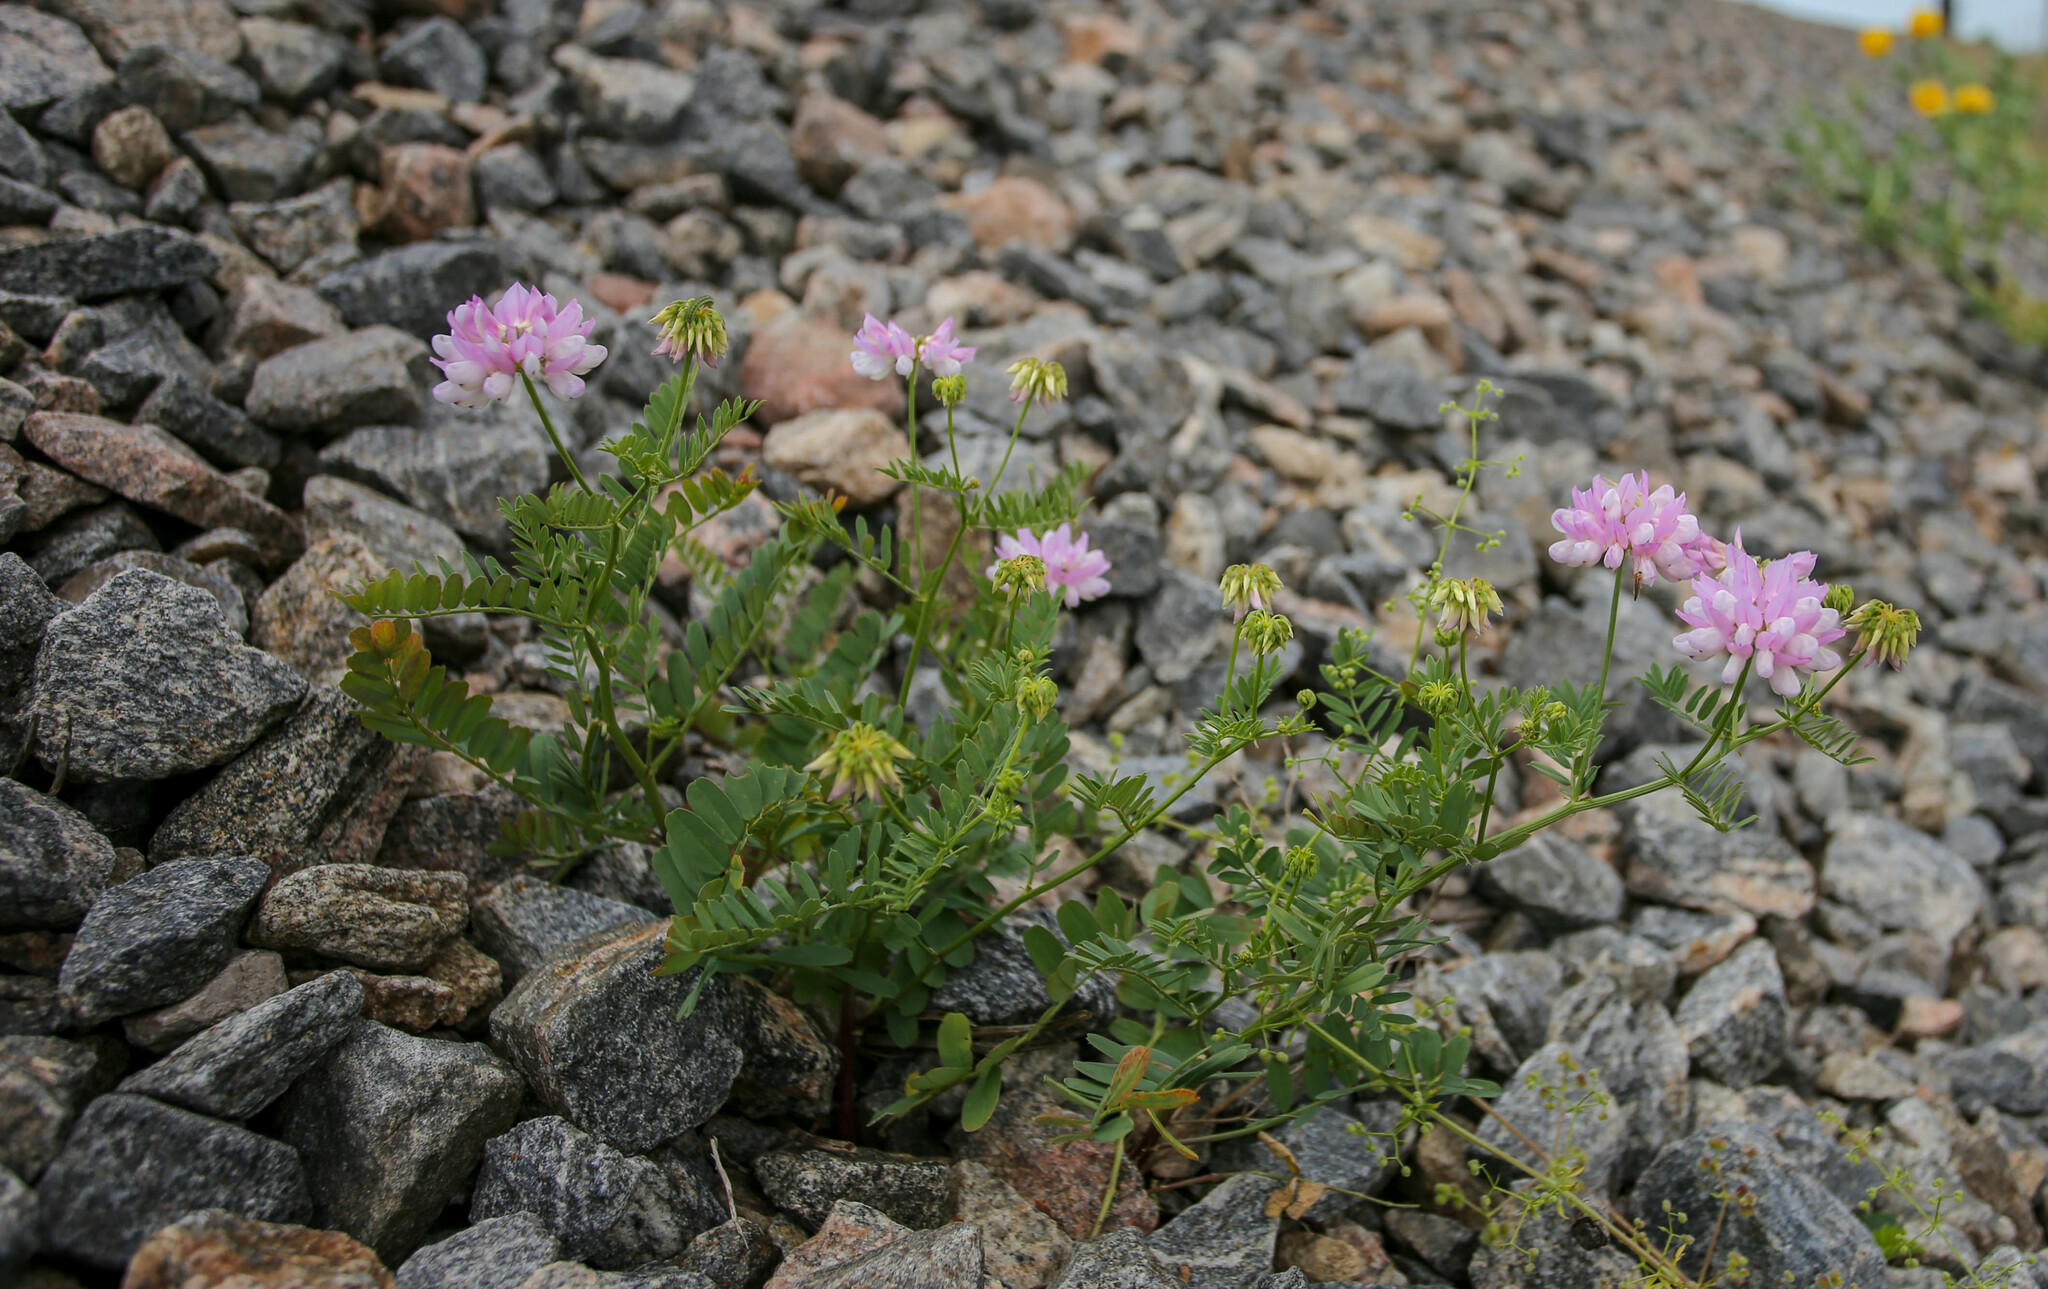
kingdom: Plantae
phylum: Tracheophyta
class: Magnoliopsida
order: Fabales
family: Fabaceae
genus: Coronilla
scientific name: Coronilla varia
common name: Crownvetch
